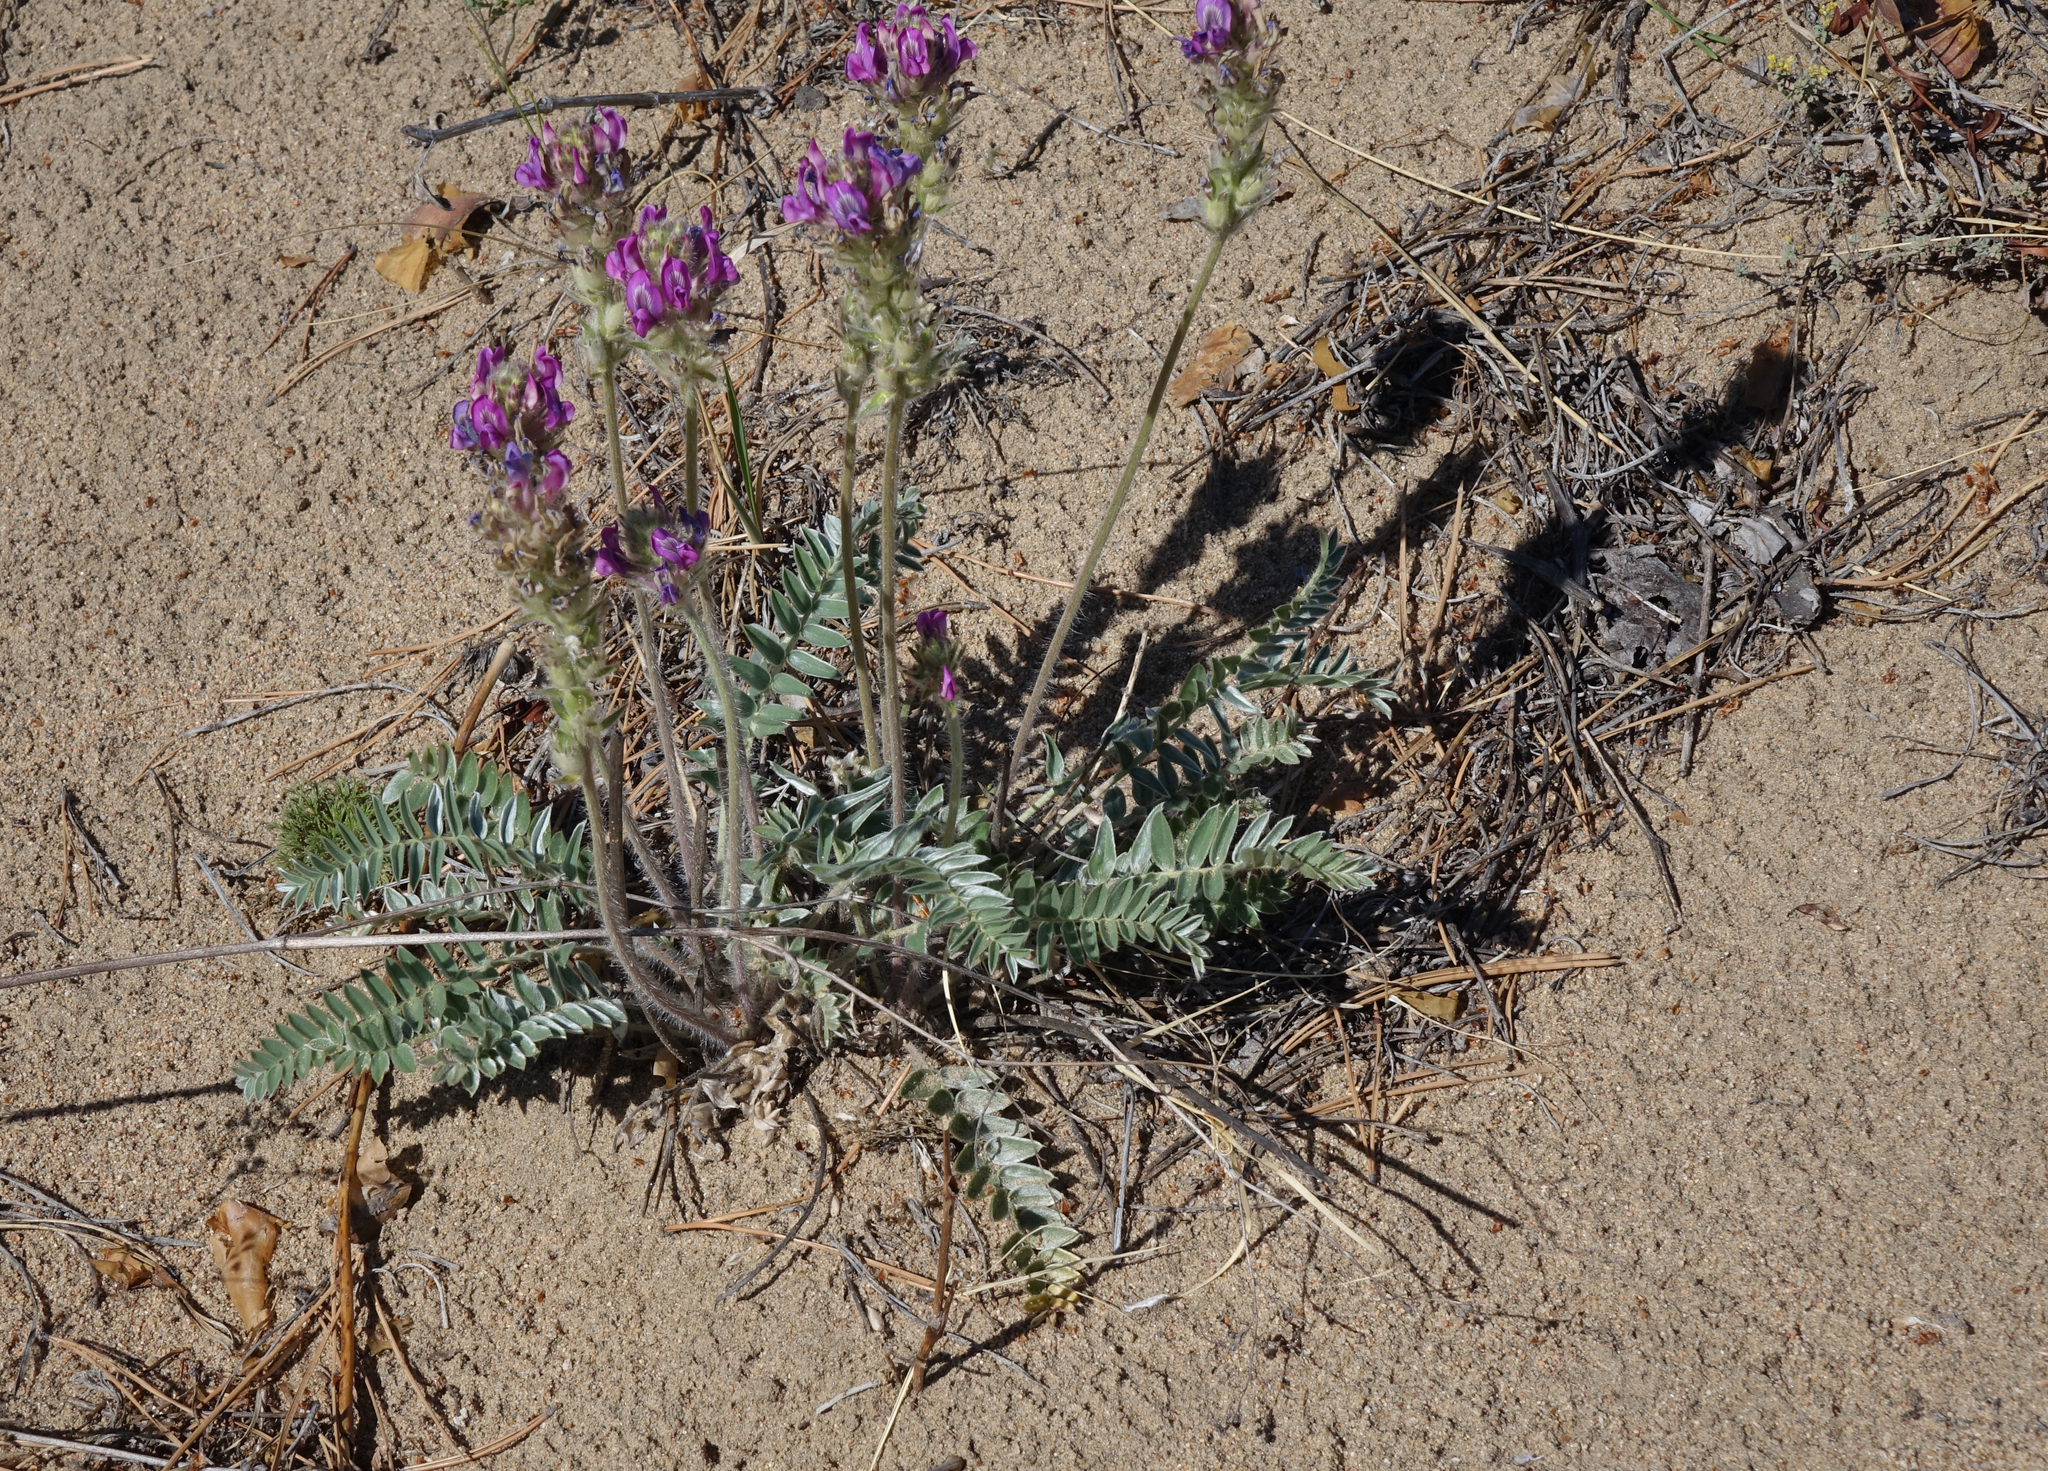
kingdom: Plantae
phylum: Tracheophyta
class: Magnoliopsida
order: Fabales
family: Fabaceae
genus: Oxytropis
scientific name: Oxytropis strobilacea
